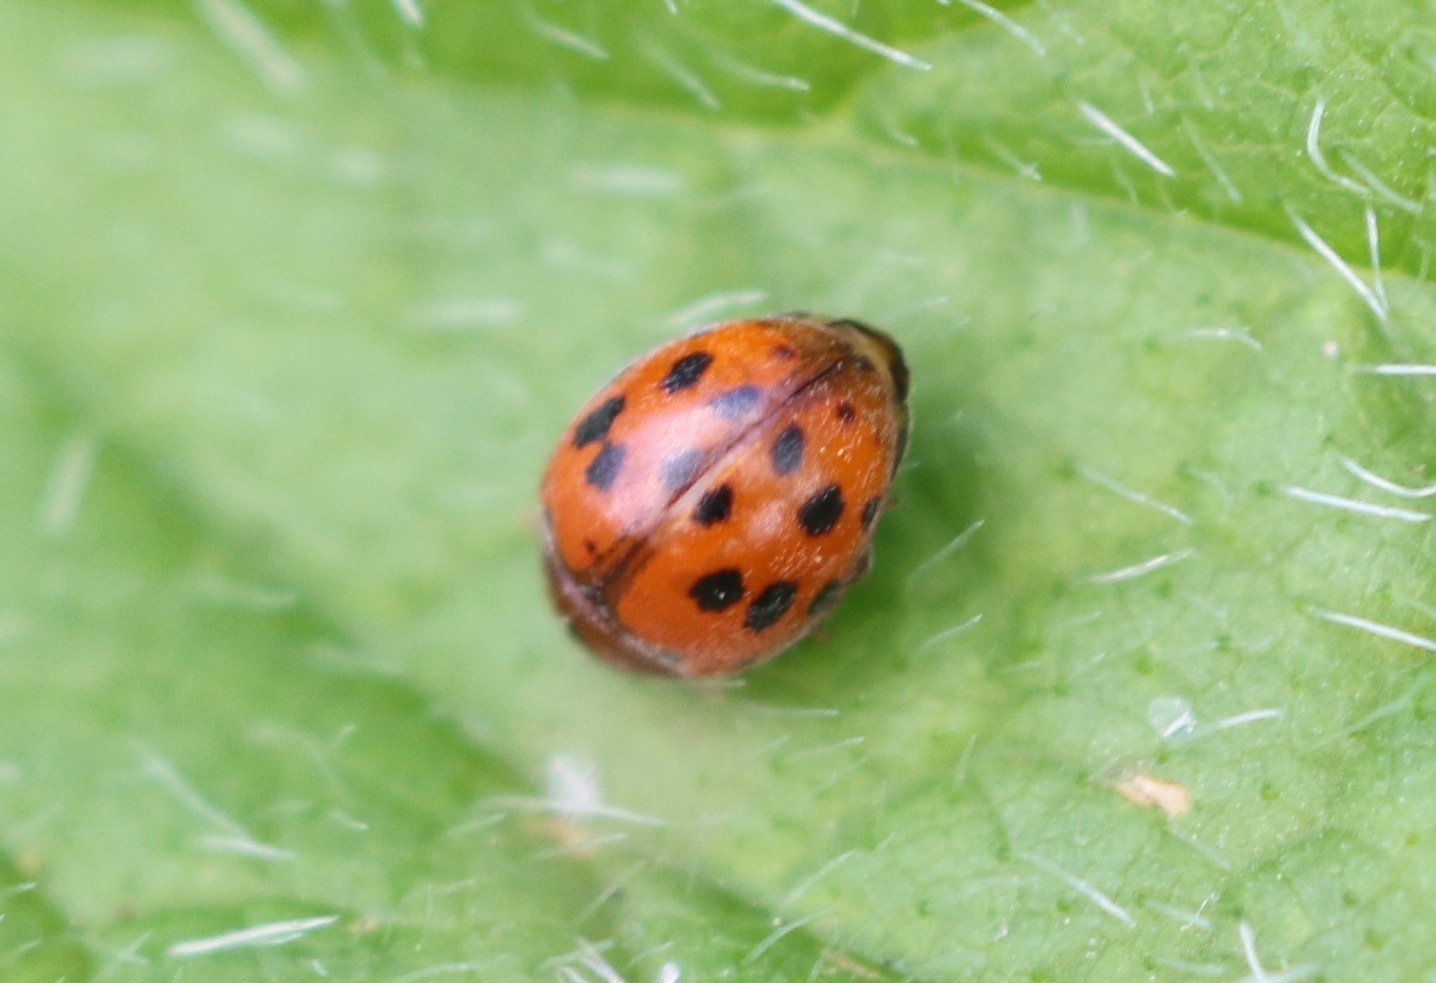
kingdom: Animalia
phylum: Arthropoda
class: Insecta
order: Coleoptera
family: Coccinellidae
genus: Subcoccinella
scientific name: Subcoccinella vigintiquatuorpunctata
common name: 24-spot ladybird
